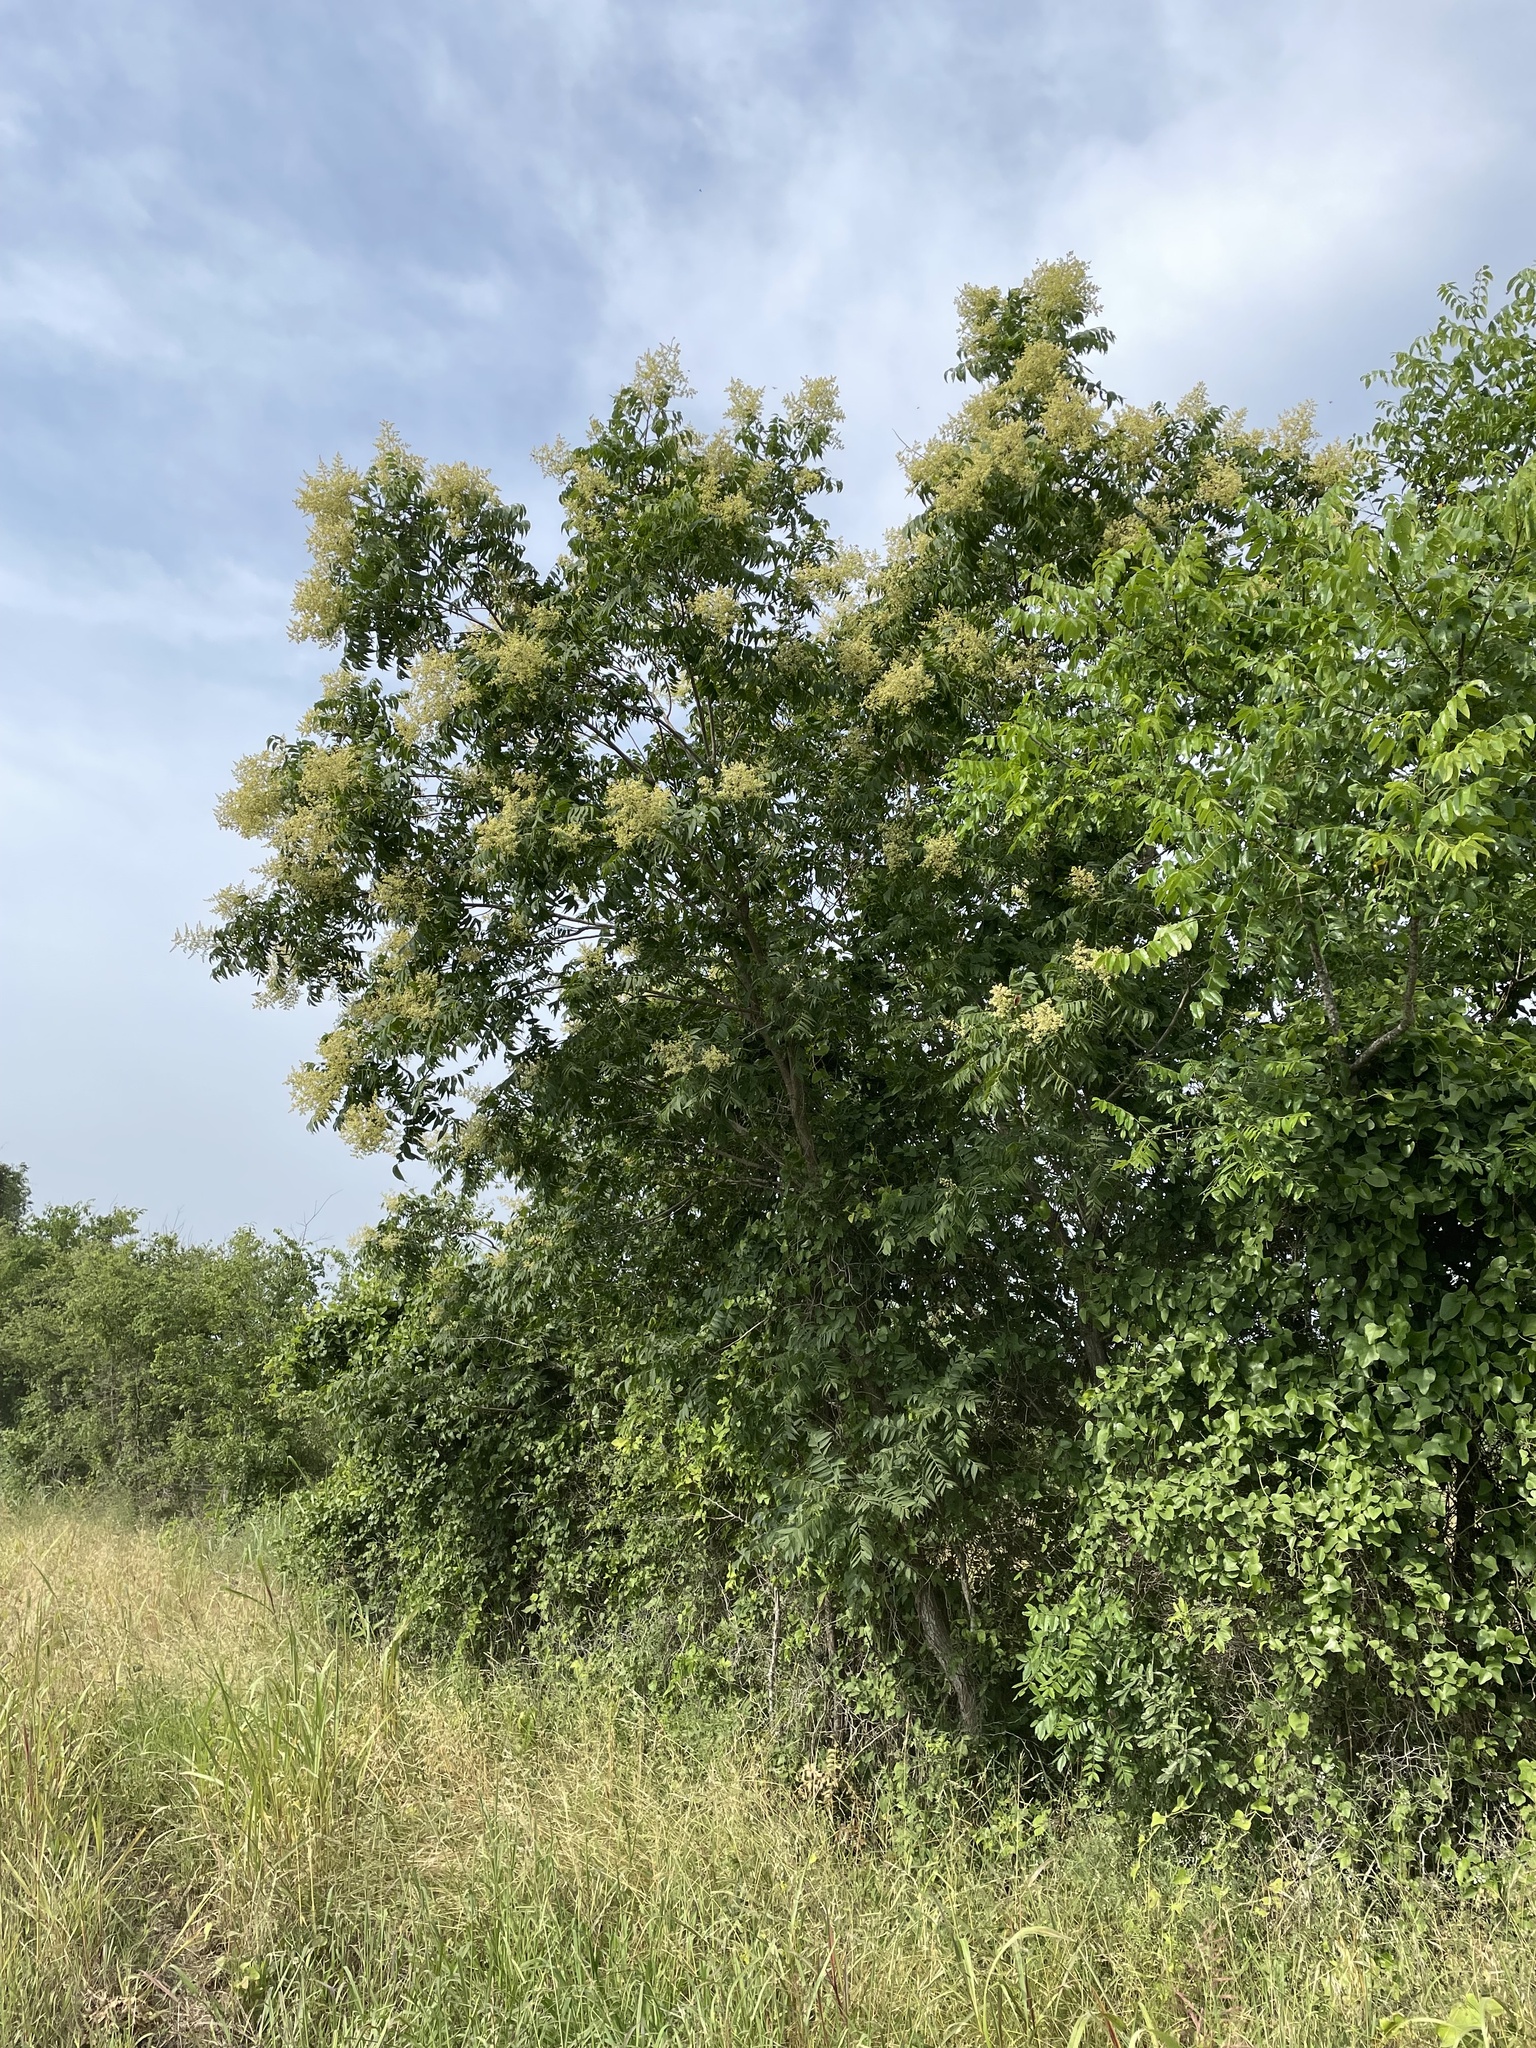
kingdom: Plantae
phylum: Tracheophyta
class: Magnoliopsida
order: Sapindales
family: Sapindaceae
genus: Sapindus
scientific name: Sapindus drummondii
